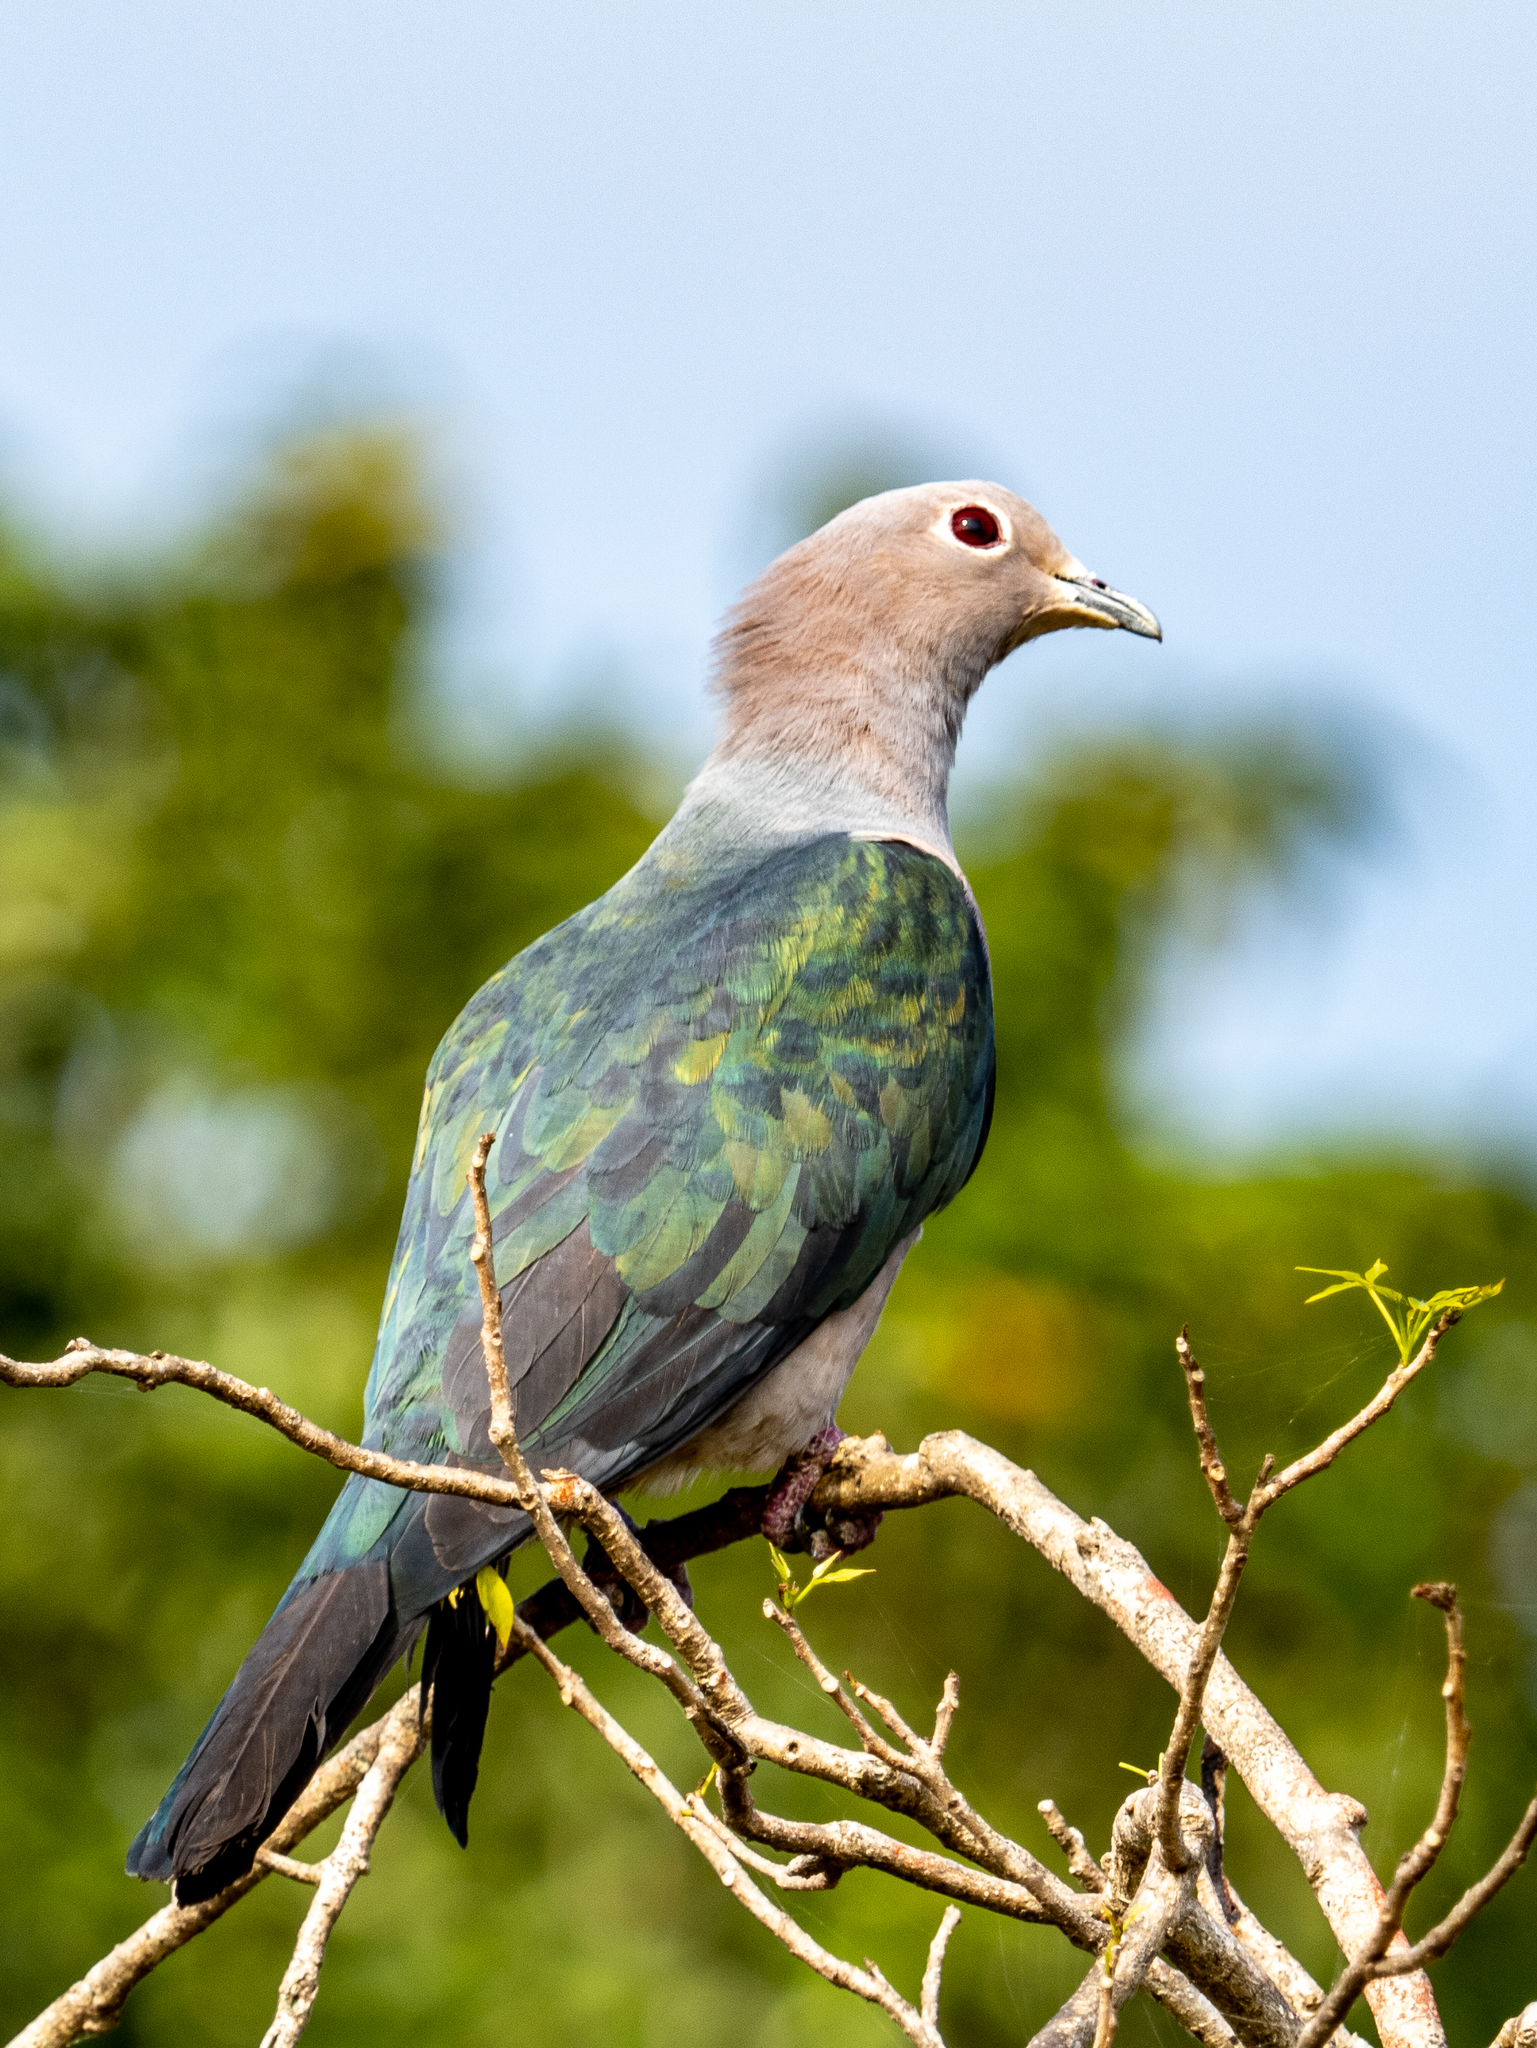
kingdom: Animalia
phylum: Chordata
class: Aves
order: Columbiformes
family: Columbidae
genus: Ducula
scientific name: Ducula aenea
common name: Green imperial pigeon
